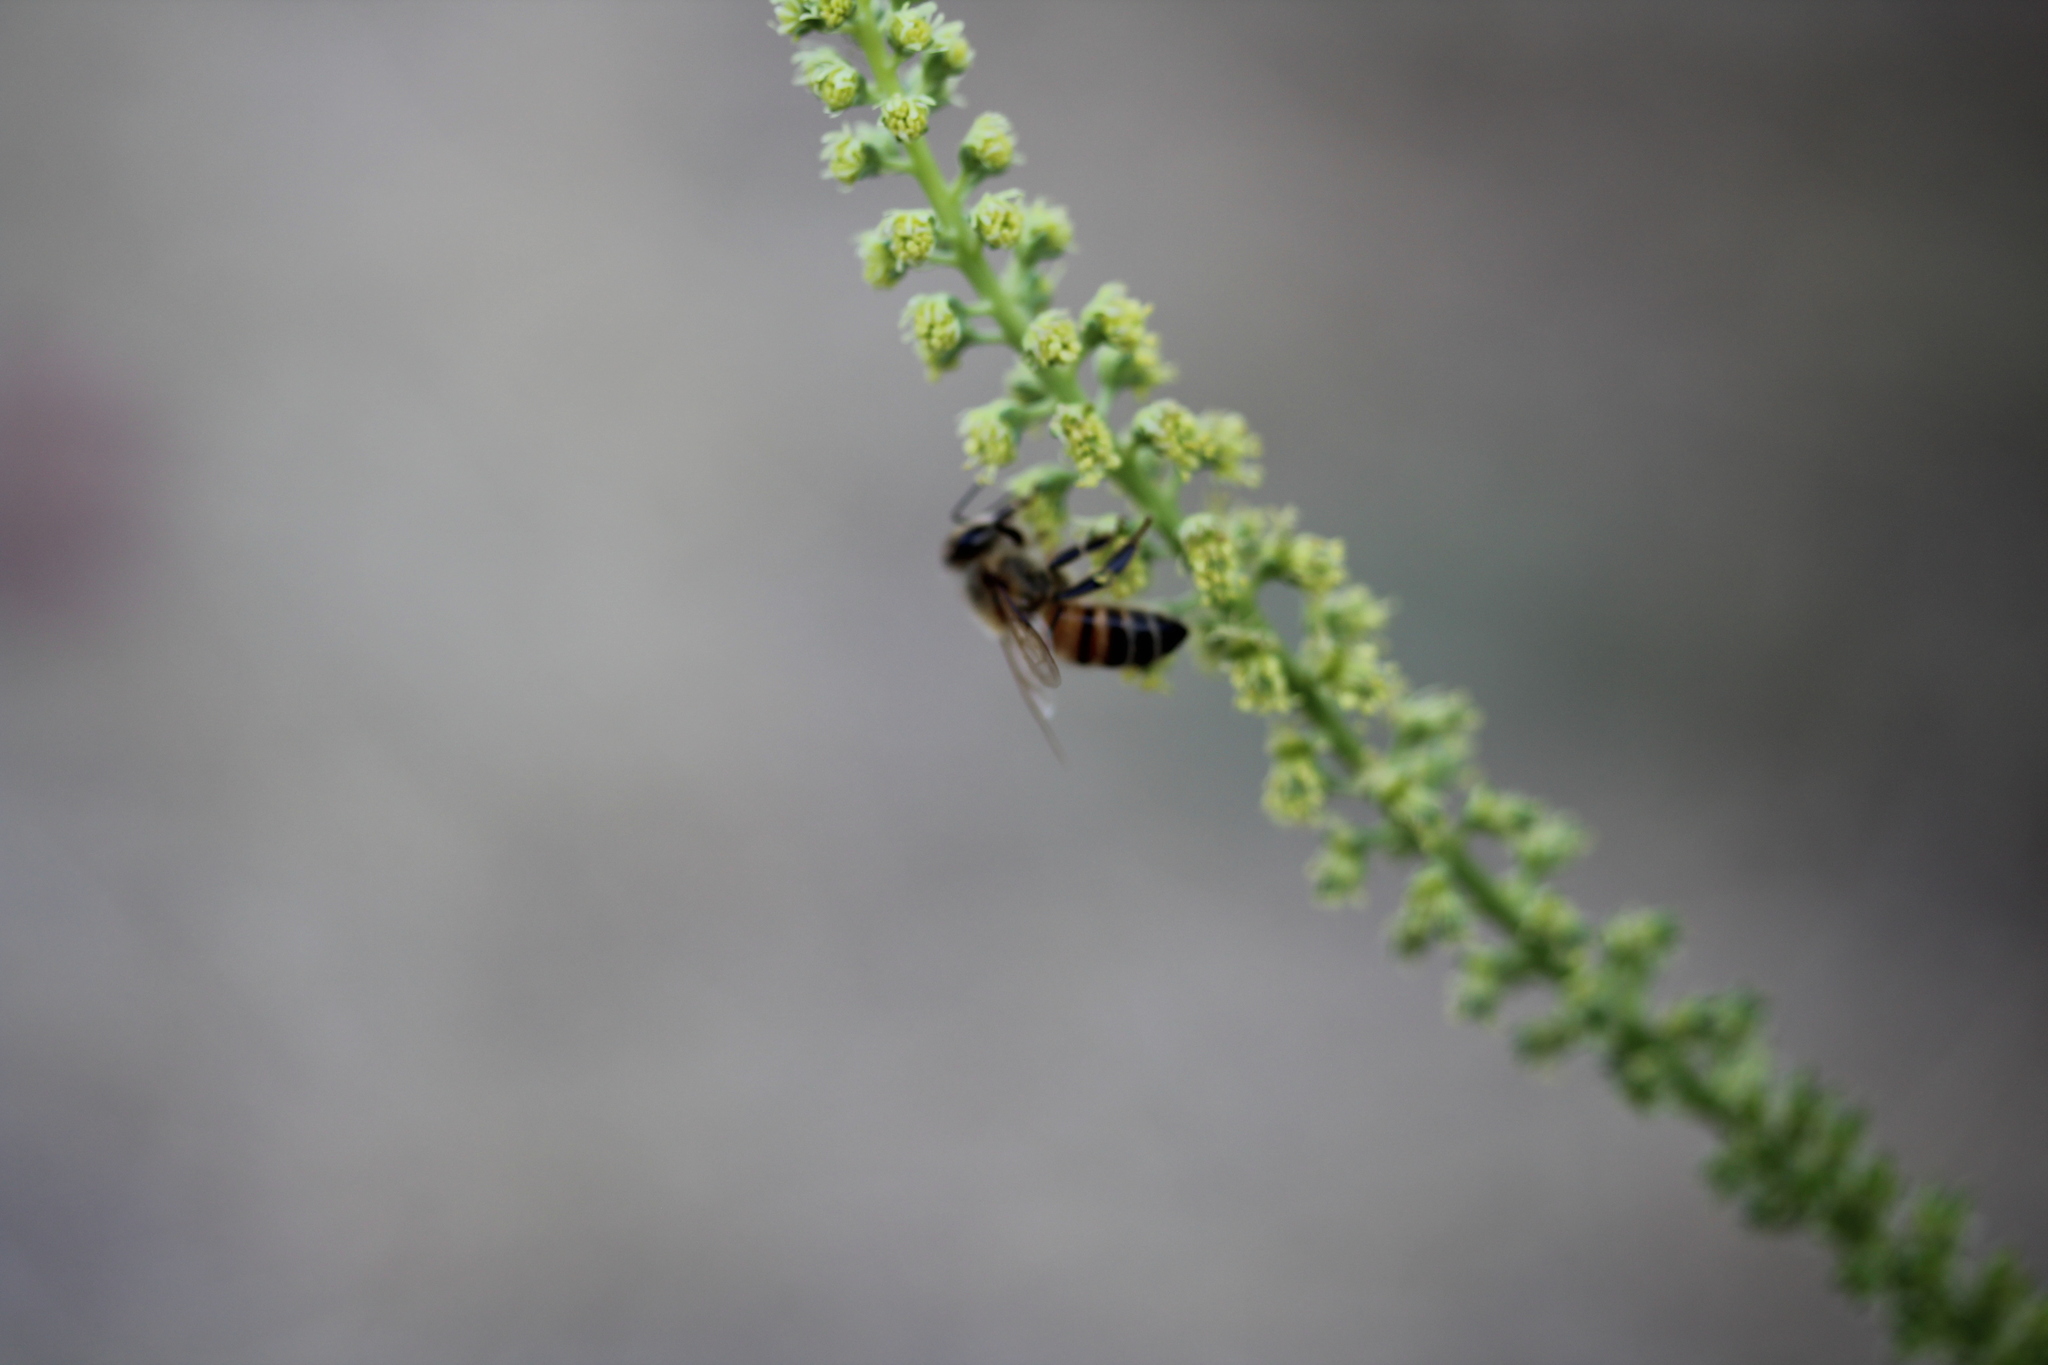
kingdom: Plantae
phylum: Tracheophyta
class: Magnoliopsida
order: Brassicales
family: Resedaceae
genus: Reseda
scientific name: Reseda luteola
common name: Weld
